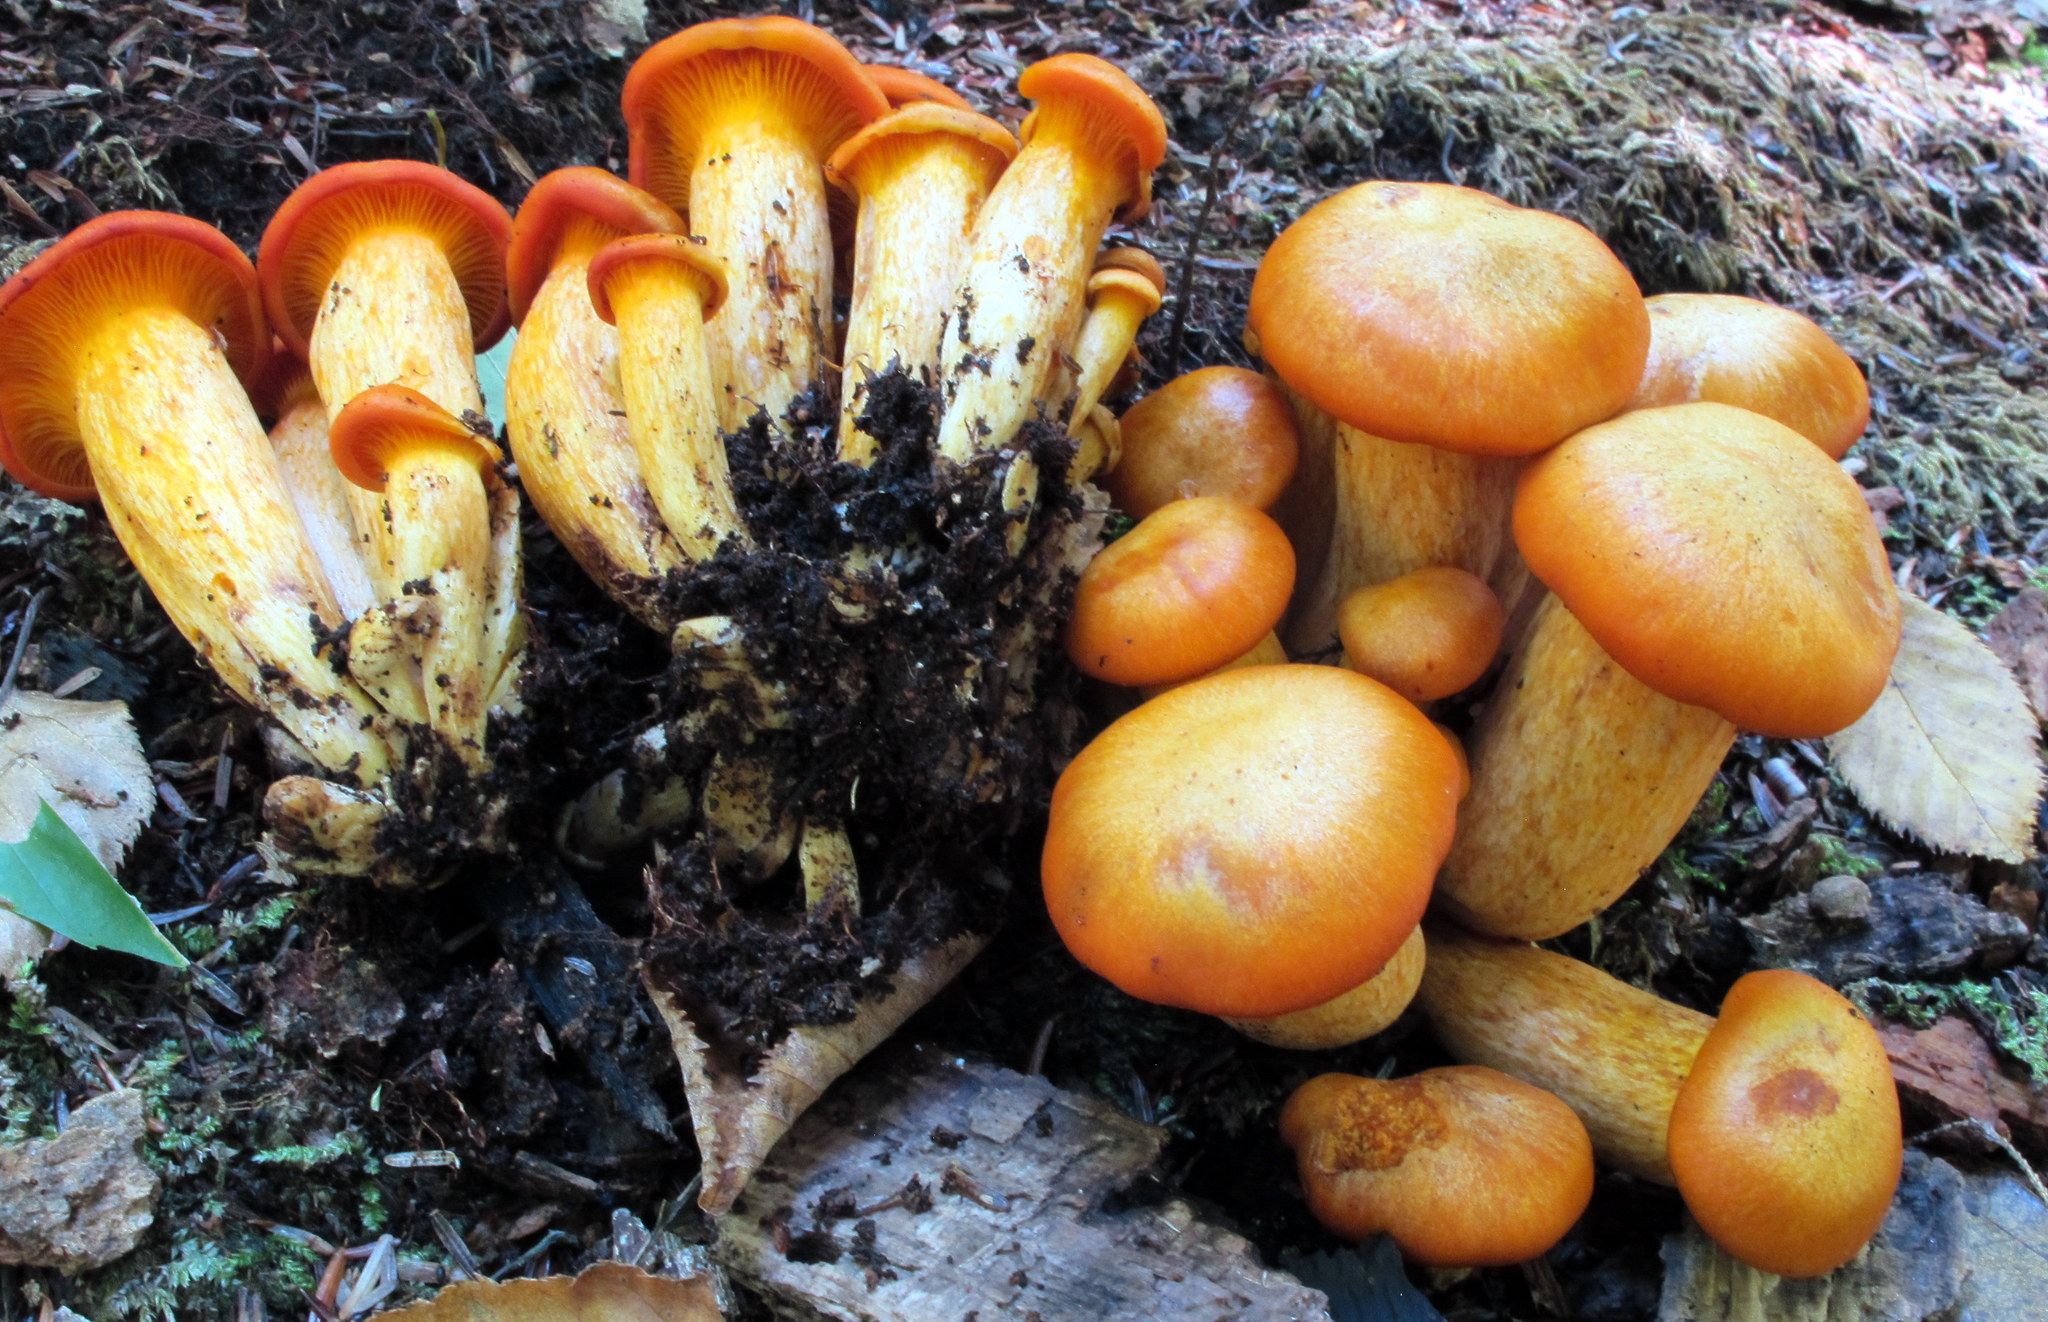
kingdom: Fungi
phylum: Basidiomycota
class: Agaricomycetes
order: Agaricales
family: Omphalotaceae
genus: Omphalotus
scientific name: Omphalotus illudens
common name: Jack o lantern
